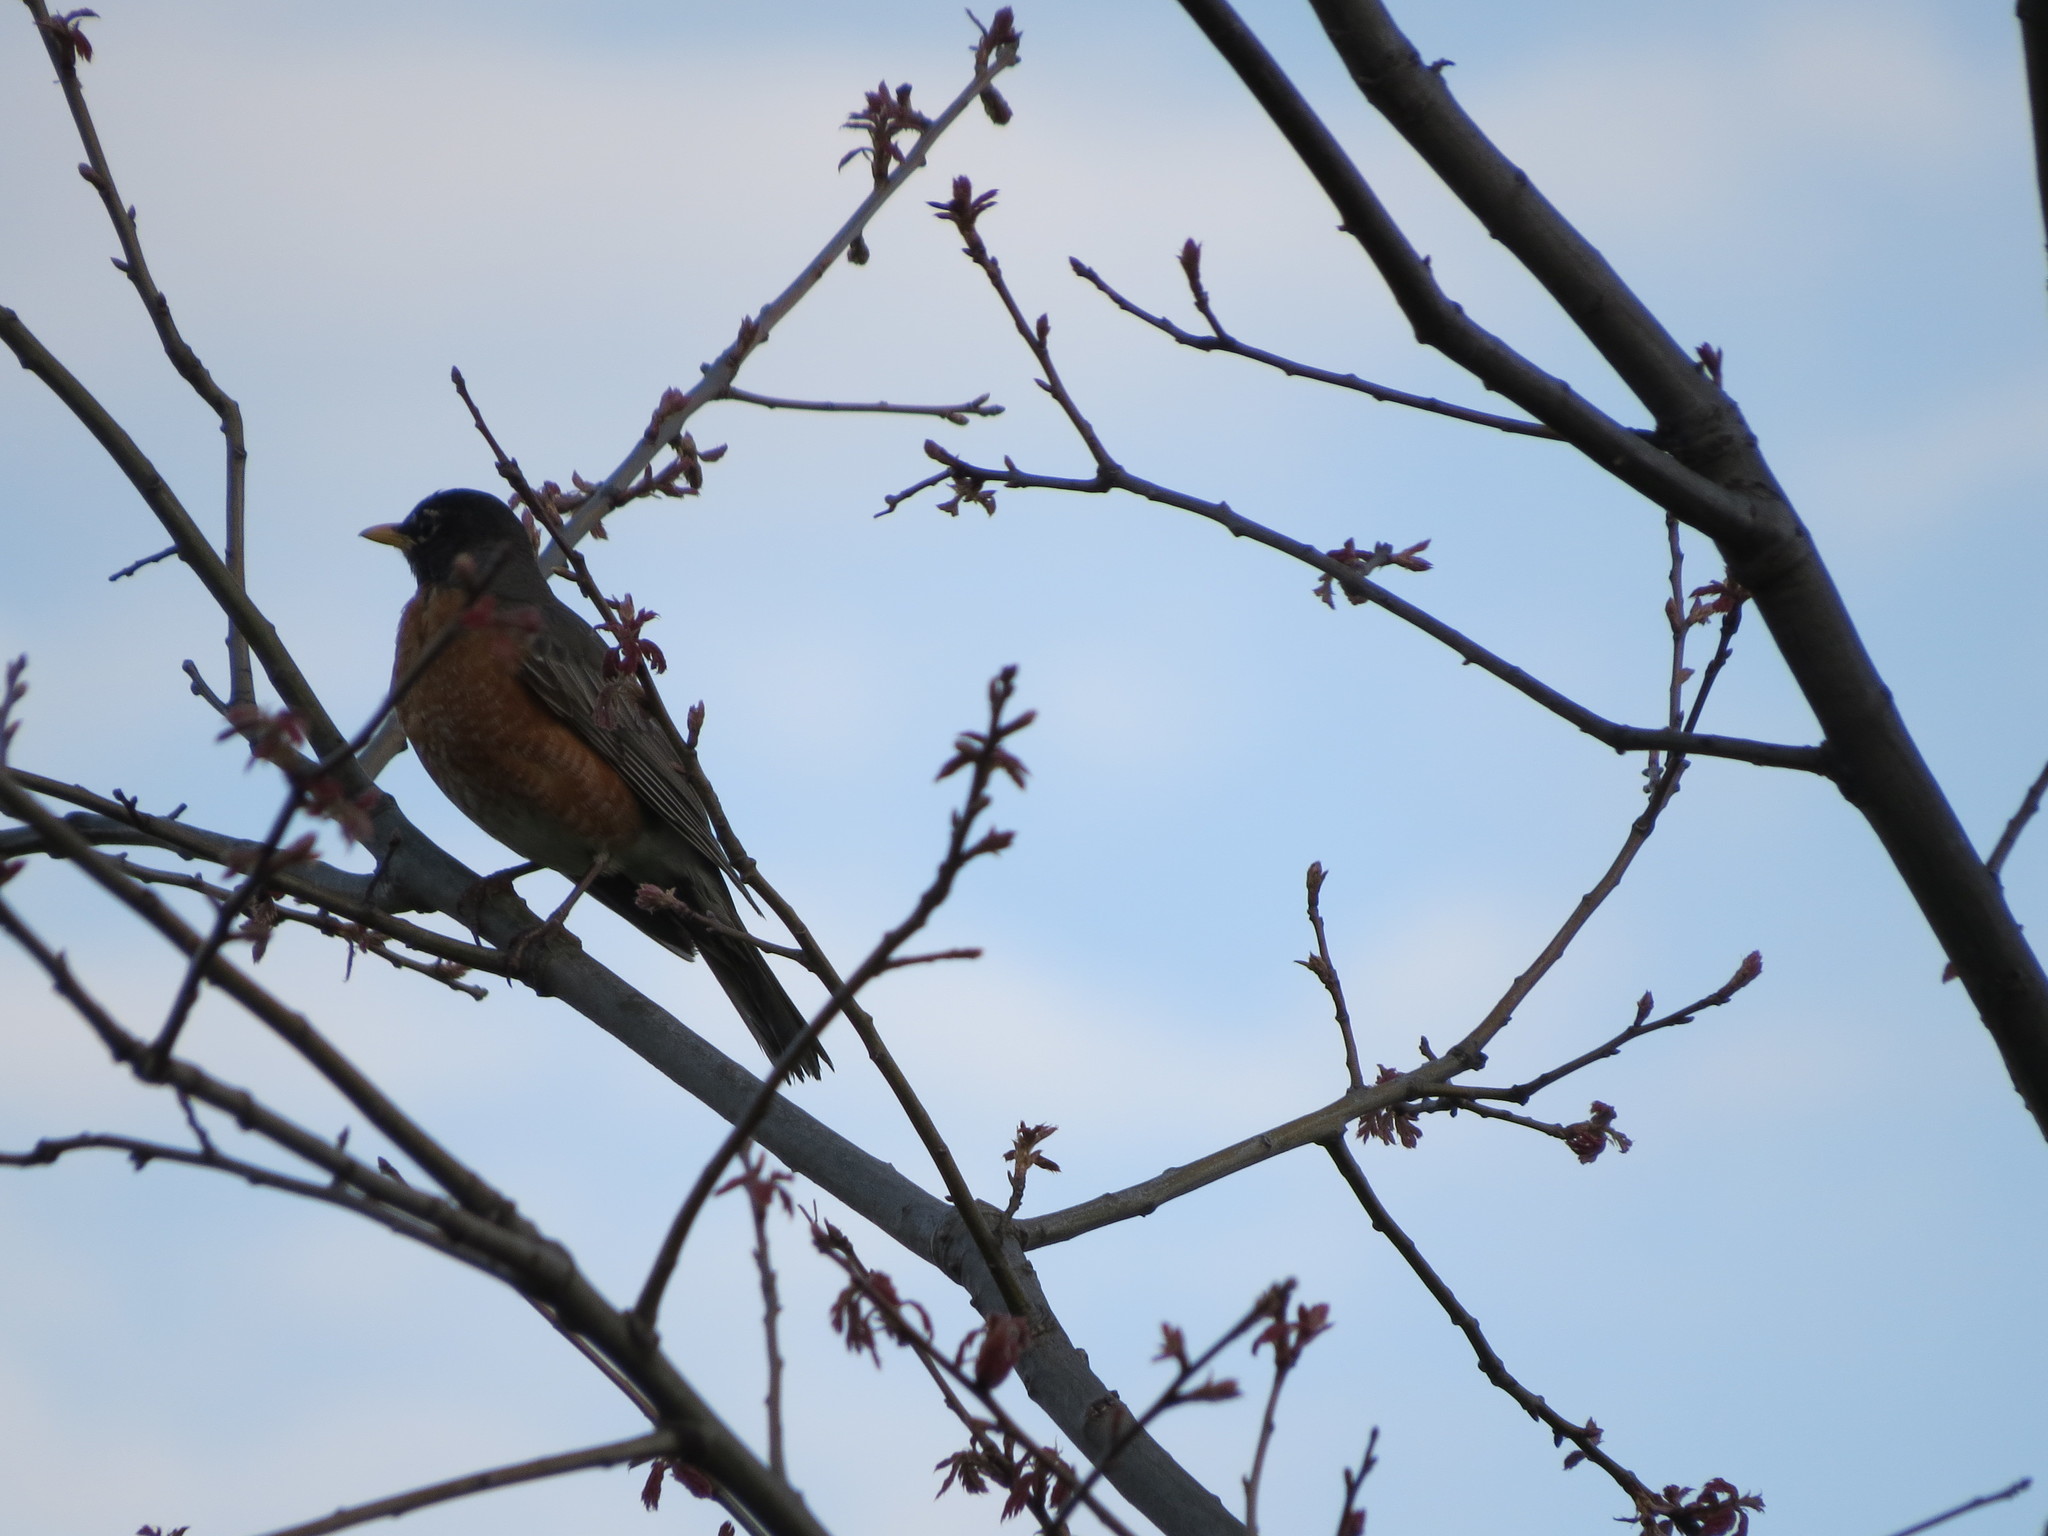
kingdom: Animalia
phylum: Chordata
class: Aves
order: Passeriformes
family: Turdidae
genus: Turdus
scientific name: Turdus migratorius
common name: American robin
